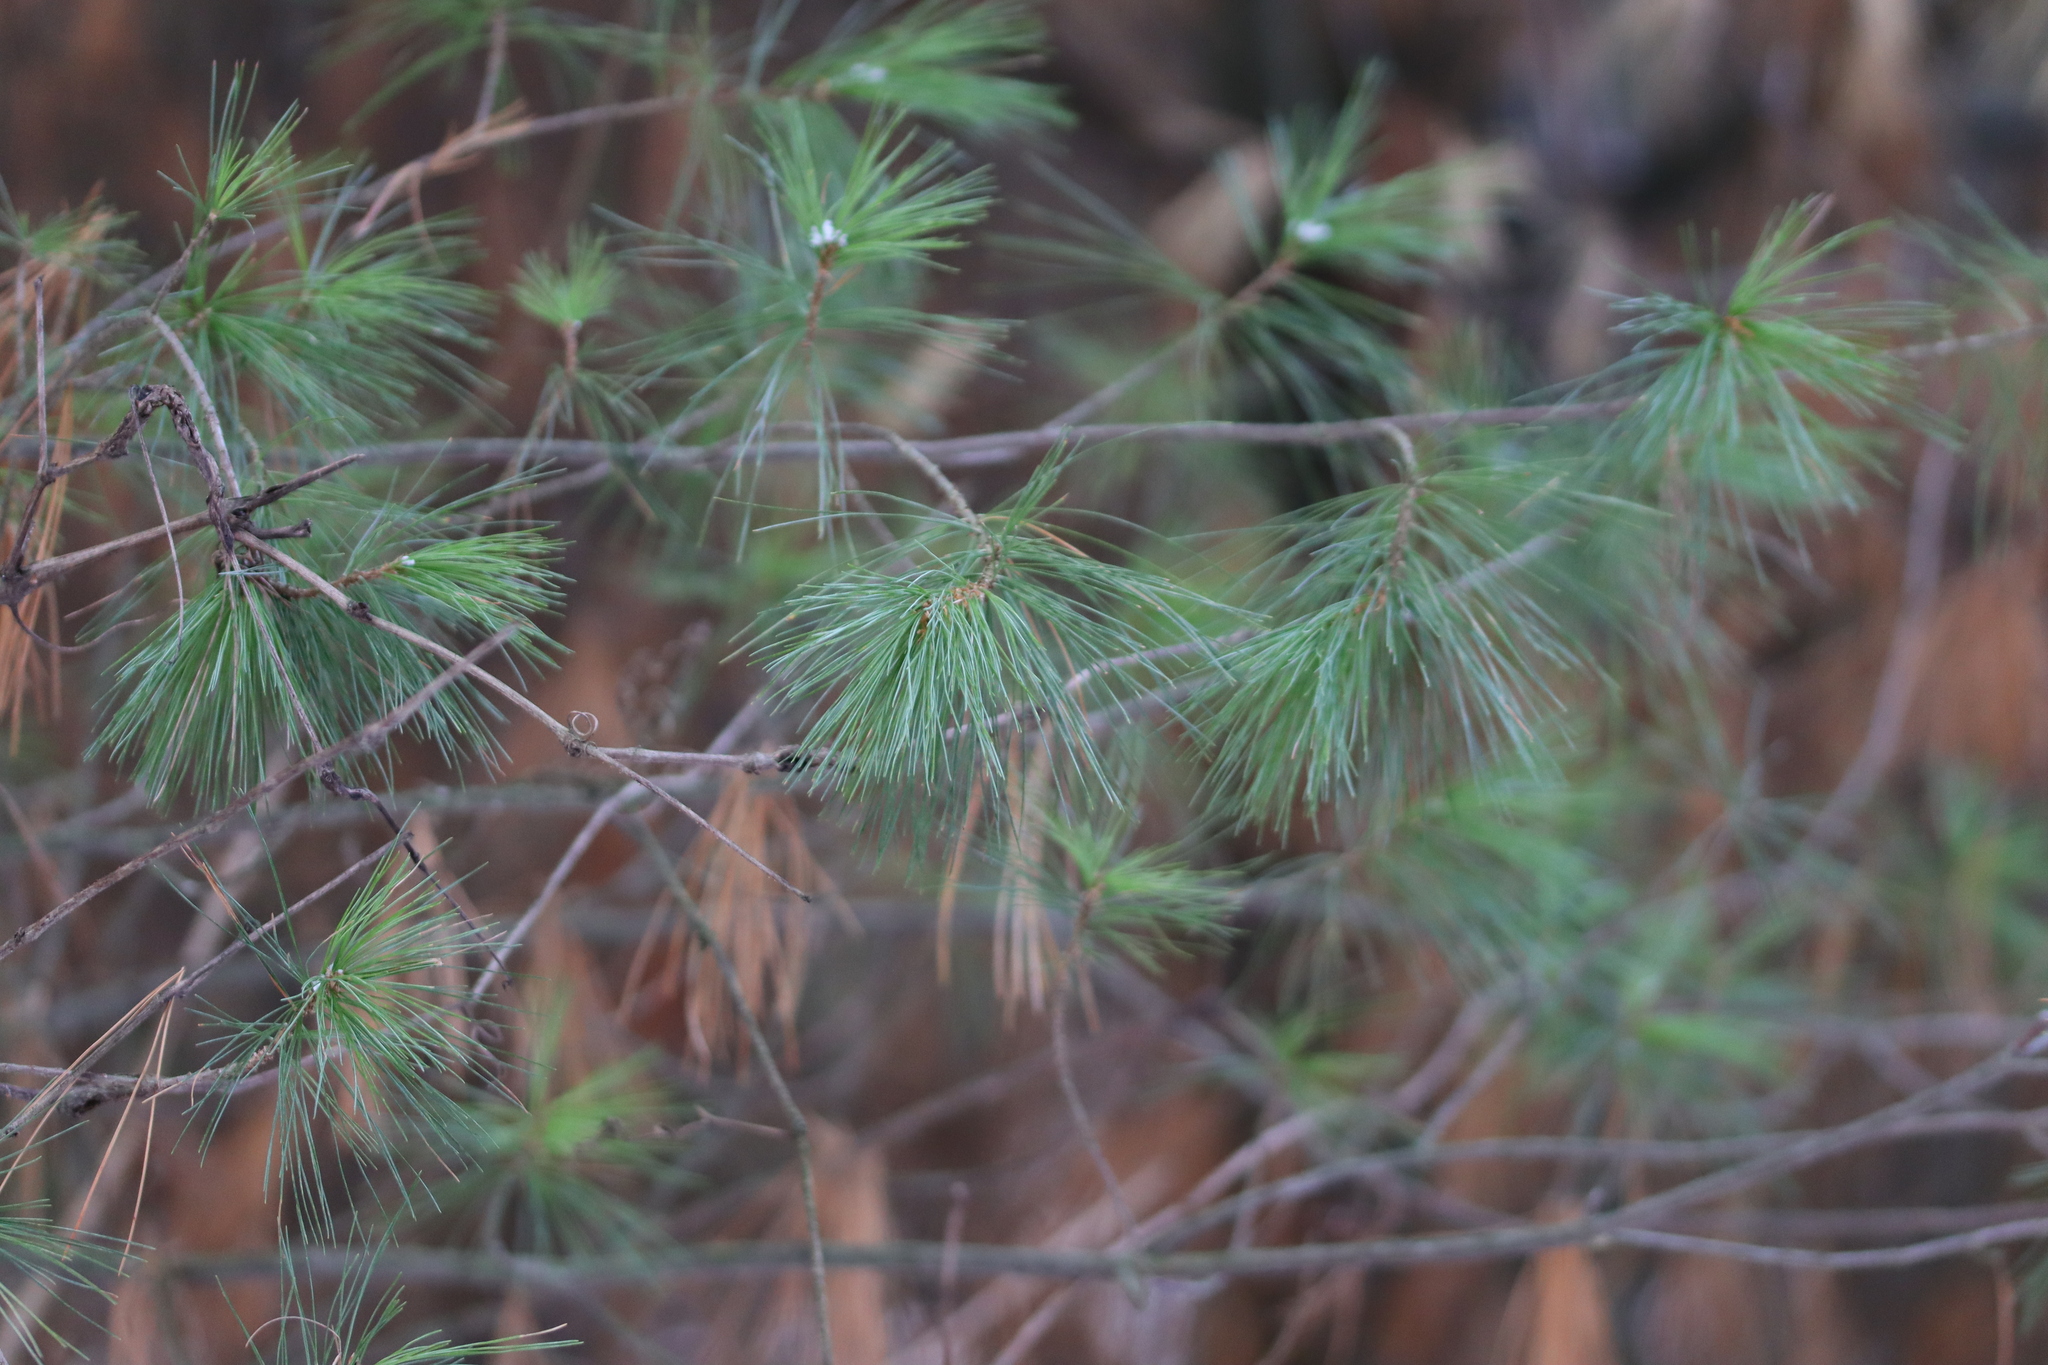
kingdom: Plantae
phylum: Tracheophyta
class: Pinopsida
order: Pinales
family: Pinaceae
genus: Pinus
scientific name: Pinus strobus
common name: Weymouth pine
